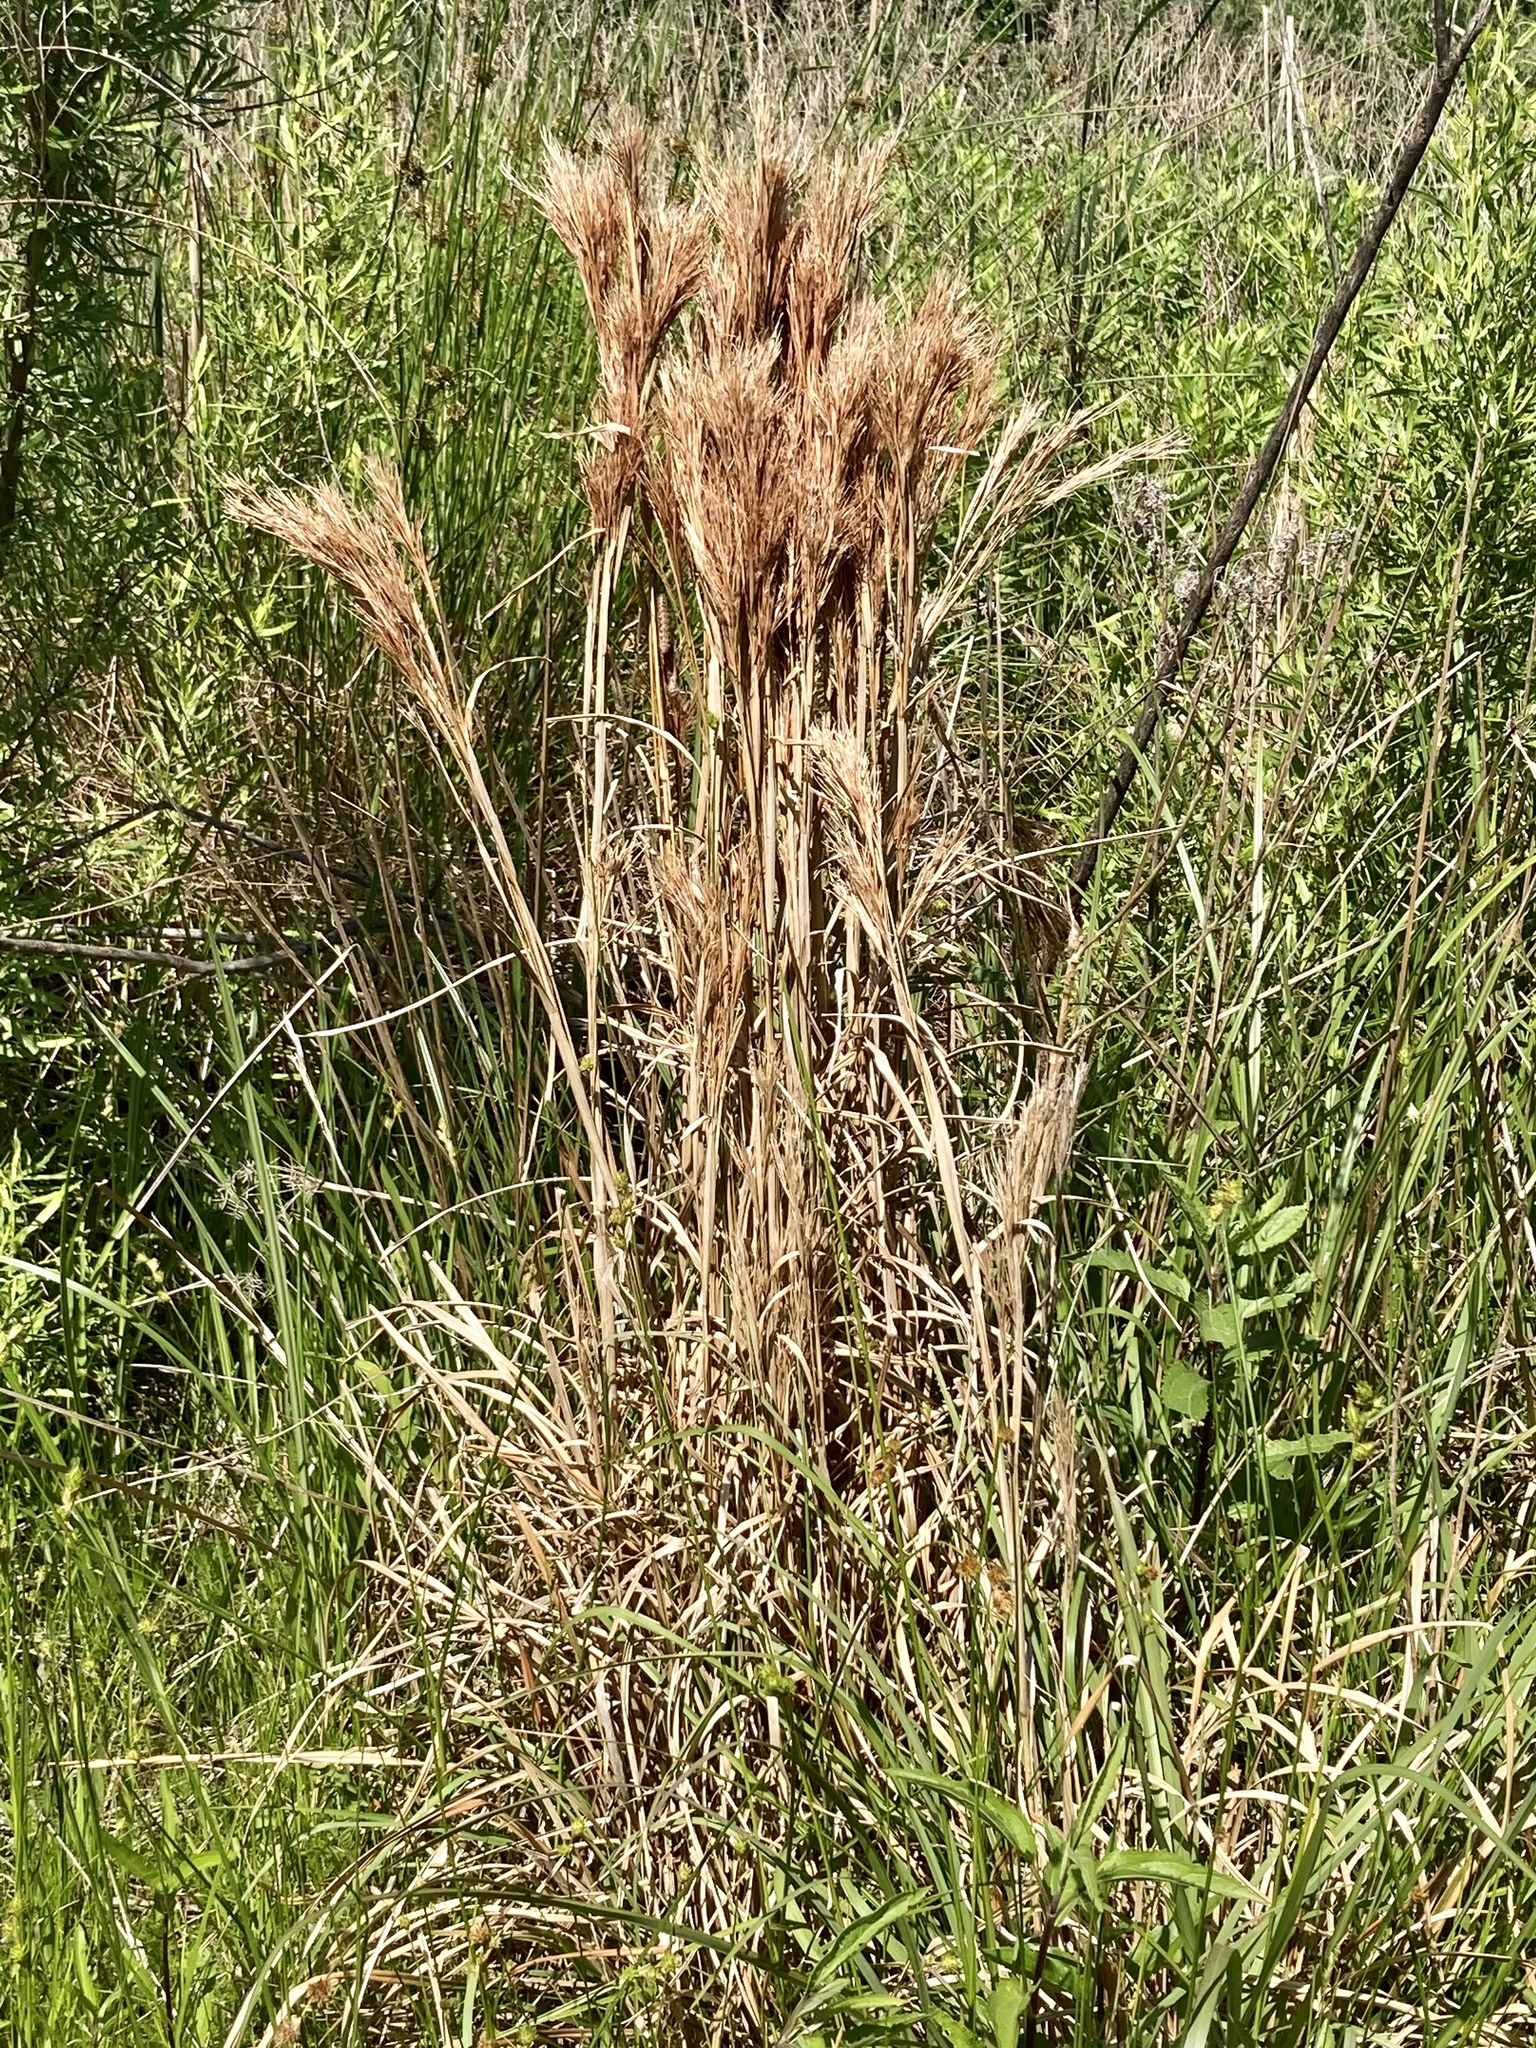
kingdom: Plantae
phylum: Tracheophyta
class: Liliopsida
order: Poales
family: Poaceae
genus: Andropogon
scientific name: Andropogon tenuispatheus
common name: Bushy bluestem
